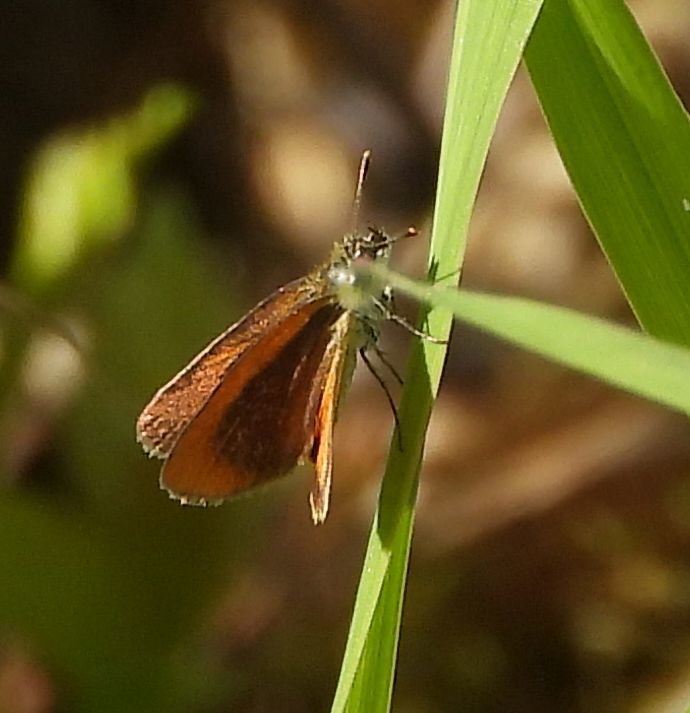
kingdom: Animalia
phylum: Arthropoda
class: Insecta
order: Lepidoptera
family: Hesperiidae
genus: Ancyloxypha
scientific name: Ancyloxypha numitor
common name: Least skipper
